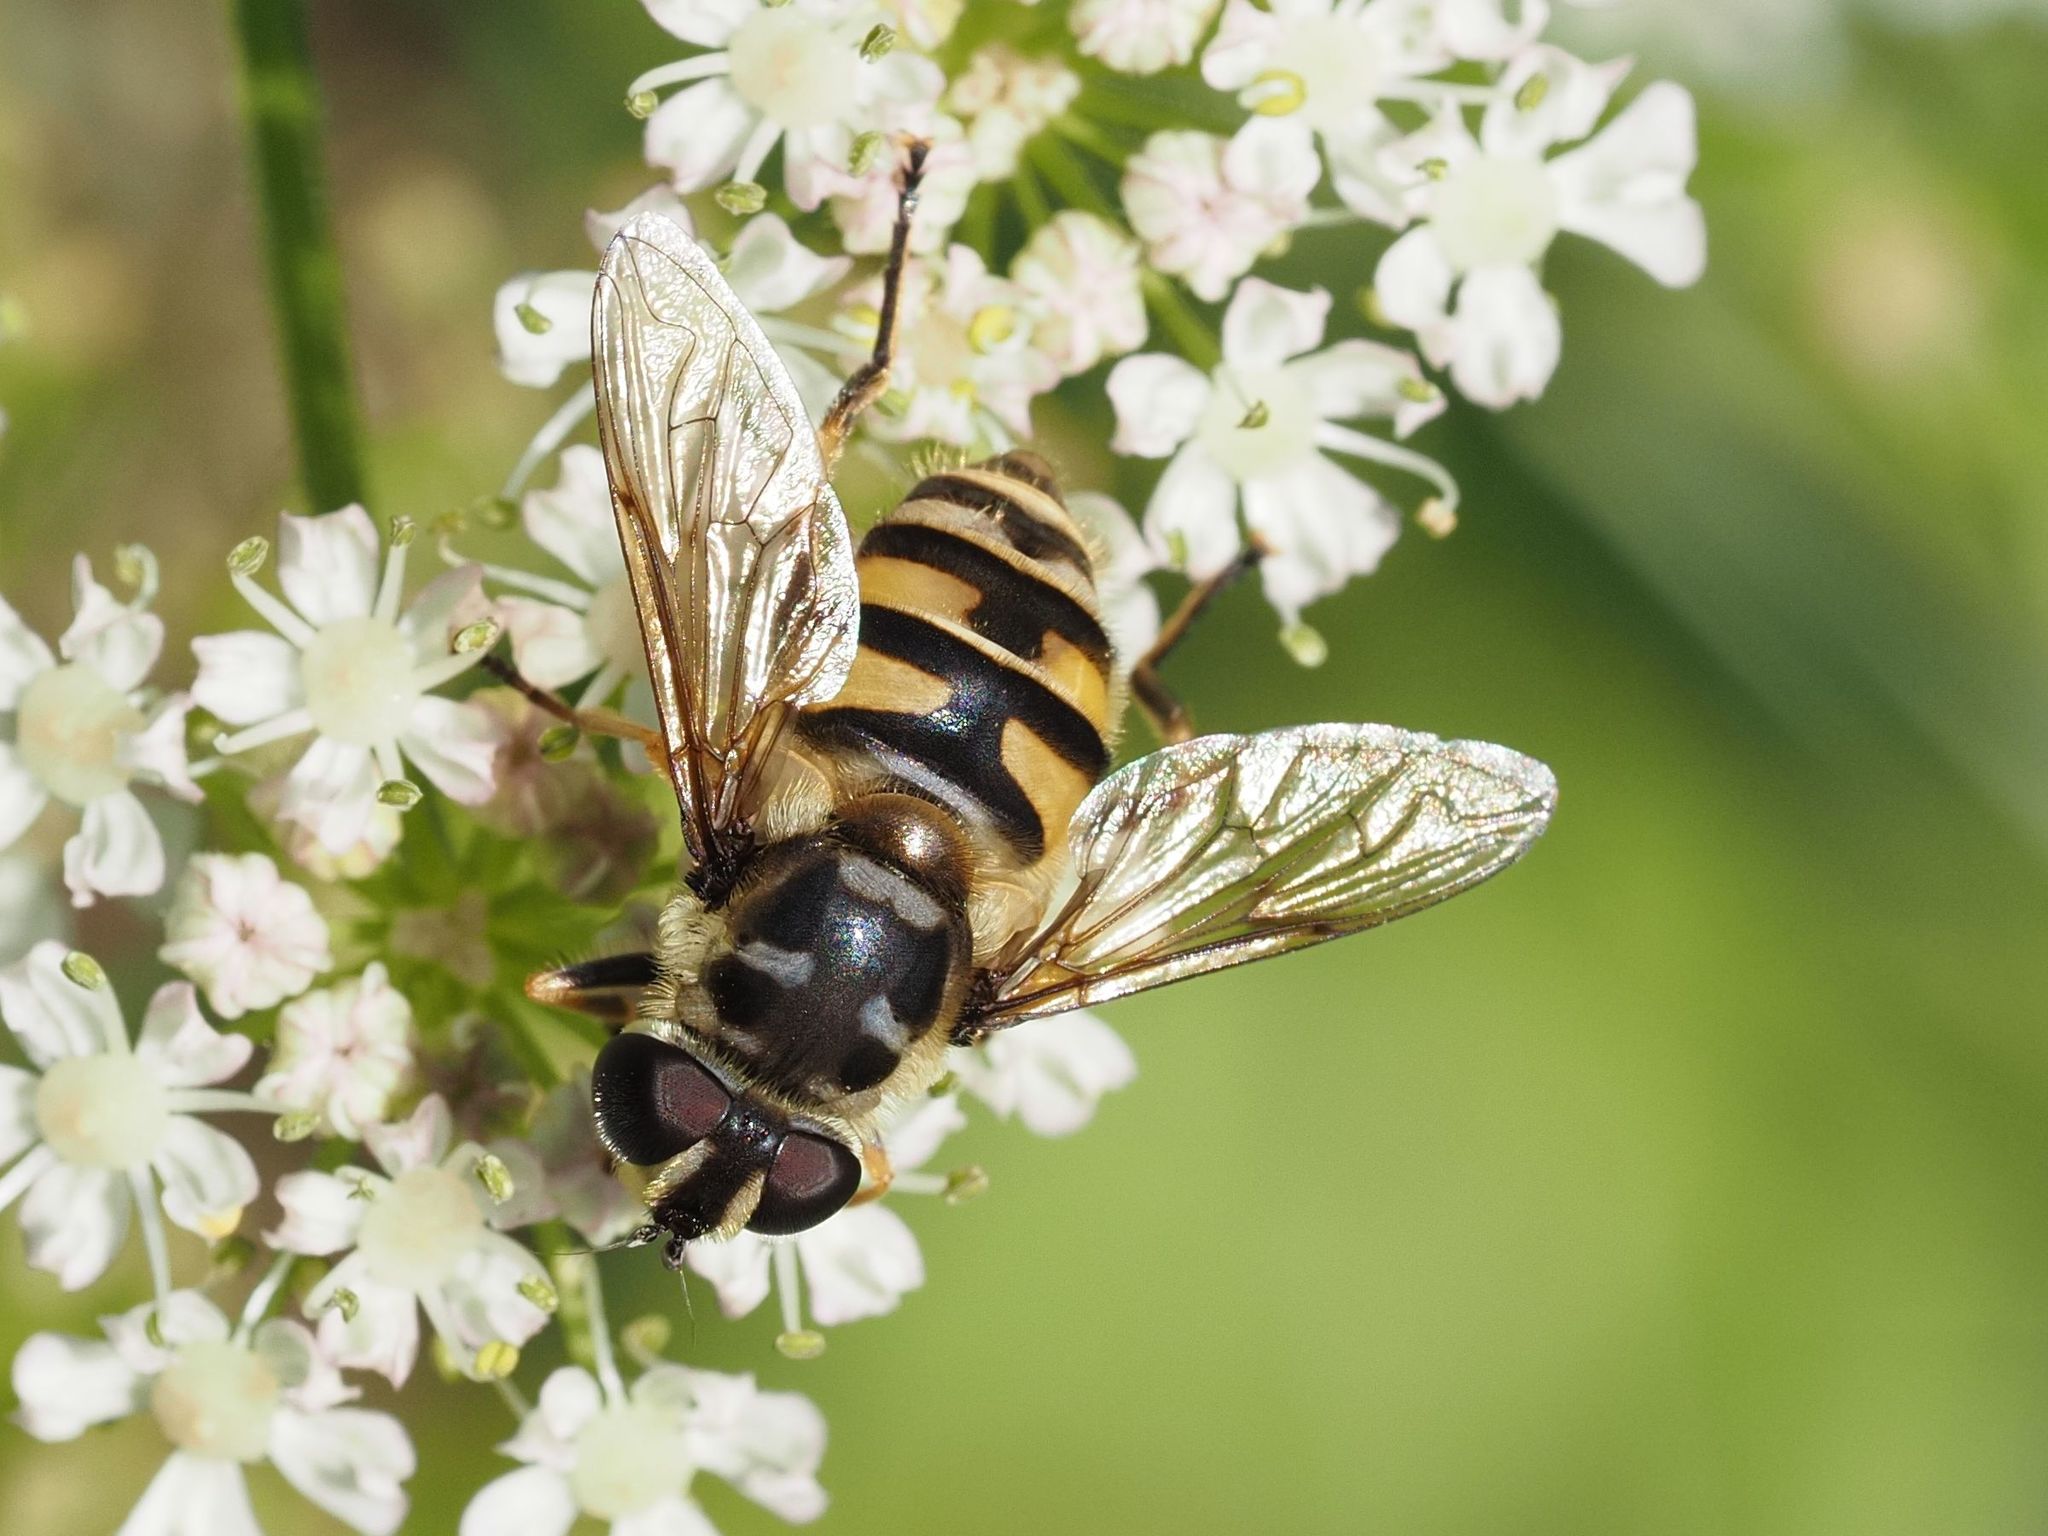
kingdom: Animalia
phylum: Arthropoda
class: Insecta
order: Diptera
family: Syrphidae
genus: Myathropa
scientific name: Myathropa florea
